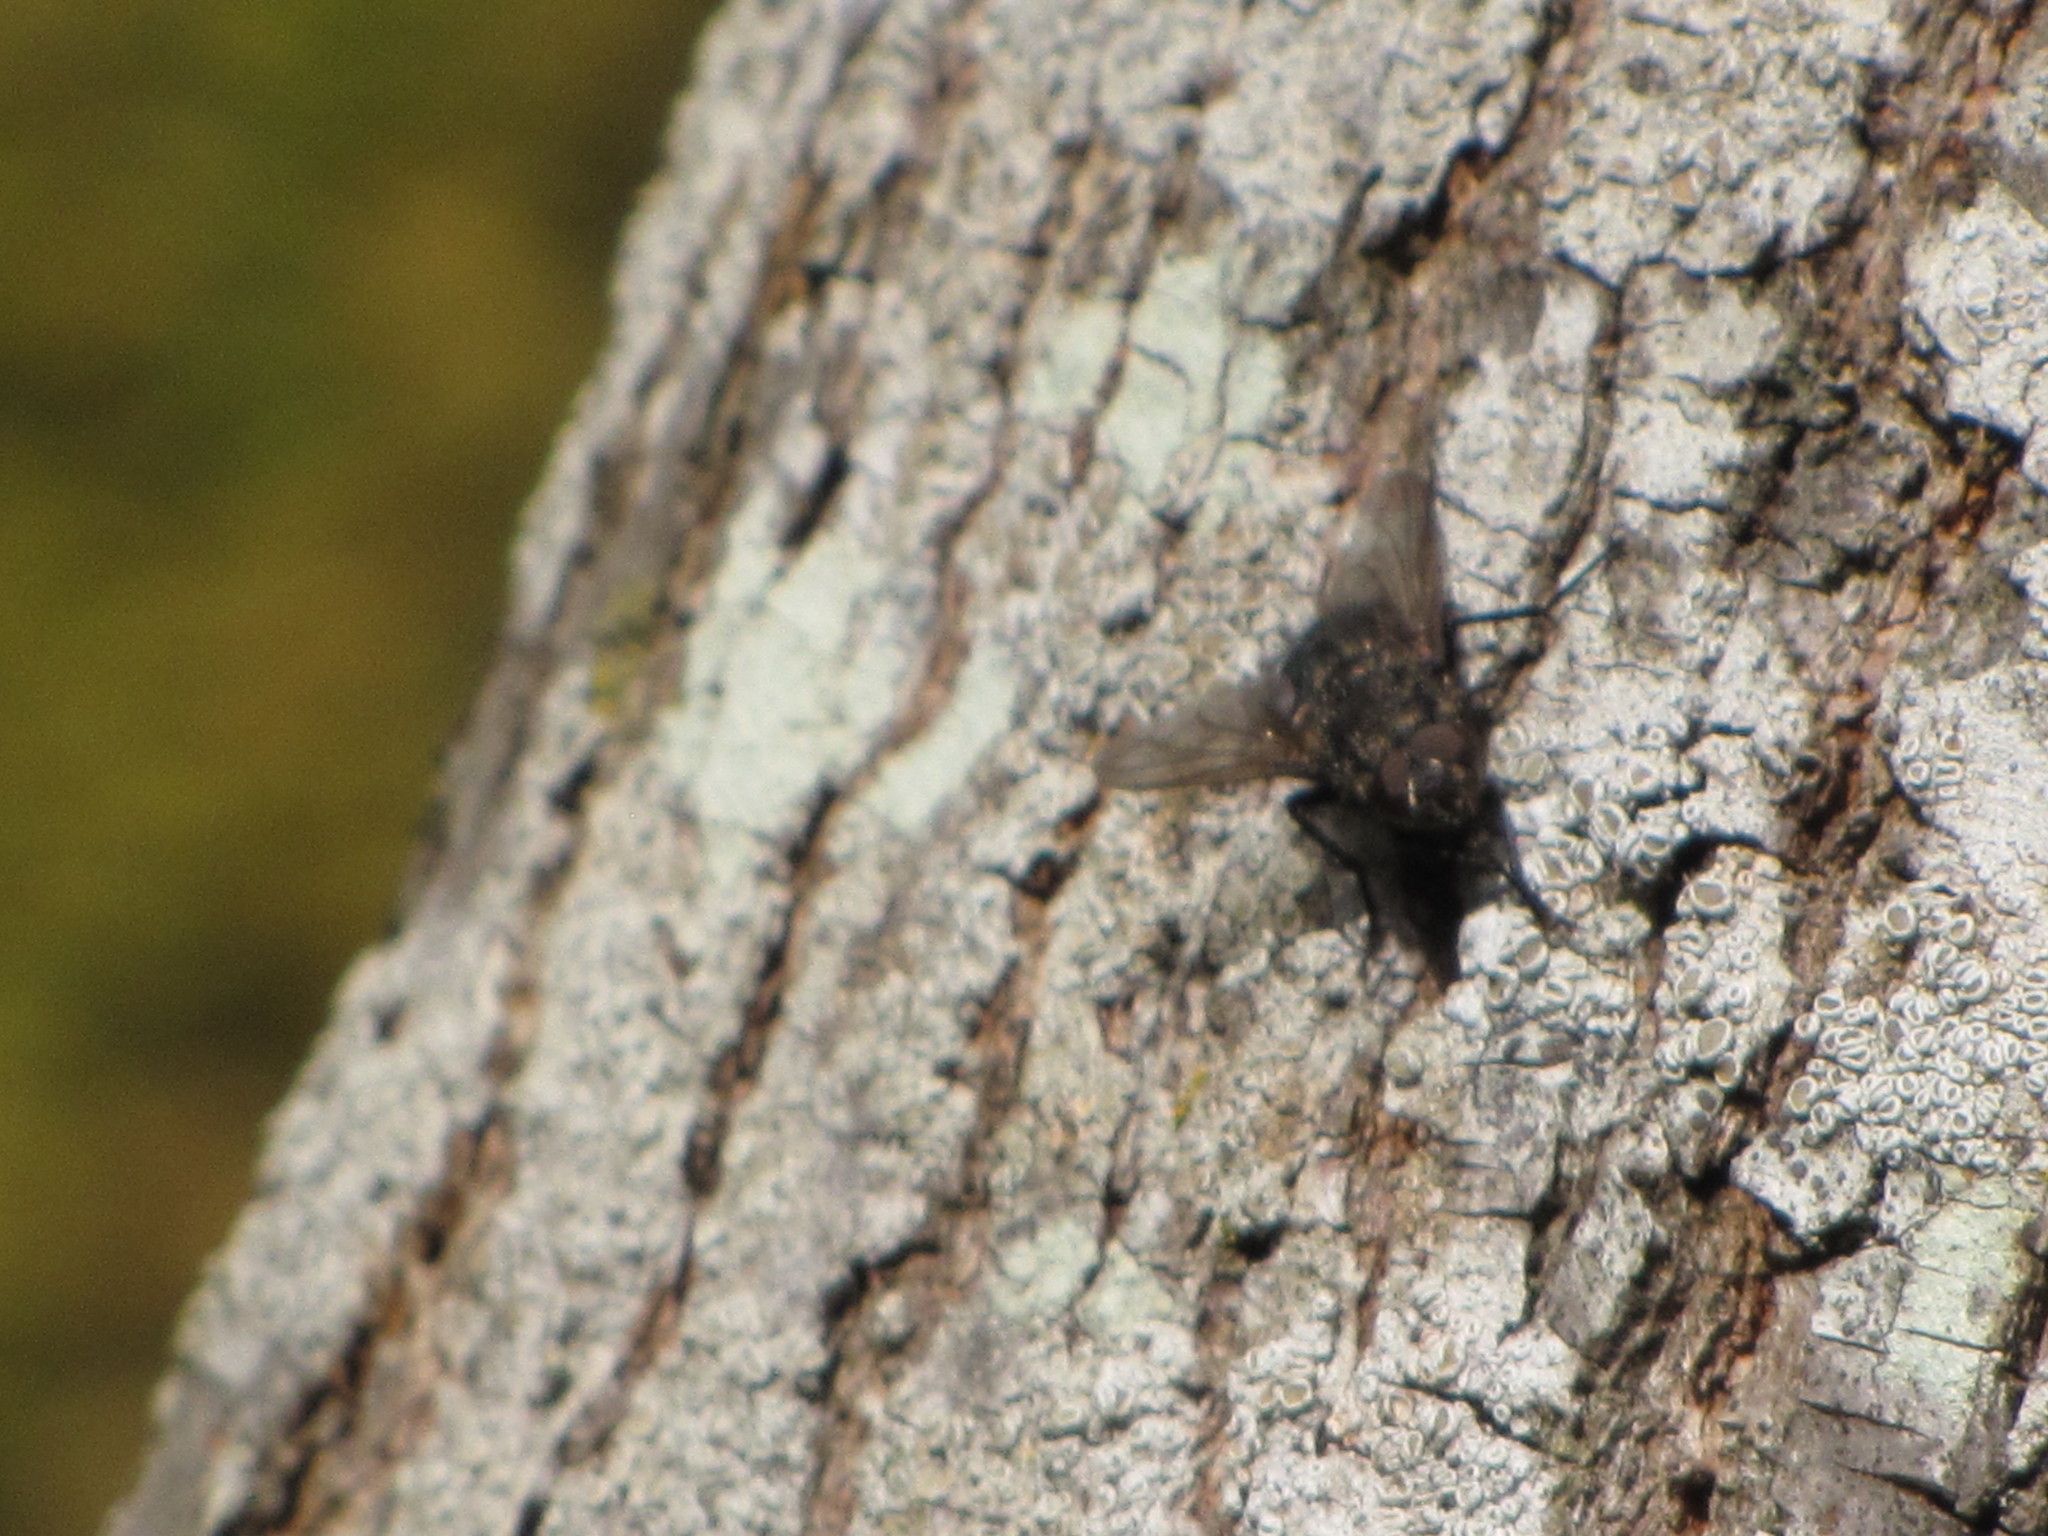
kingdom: Animalia
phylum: Arthropoda
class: Insecta
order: Diptera
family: Polleniidae
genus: Pollenia
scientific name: Pollenia vagabunda
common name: Vagabund cluster fly
